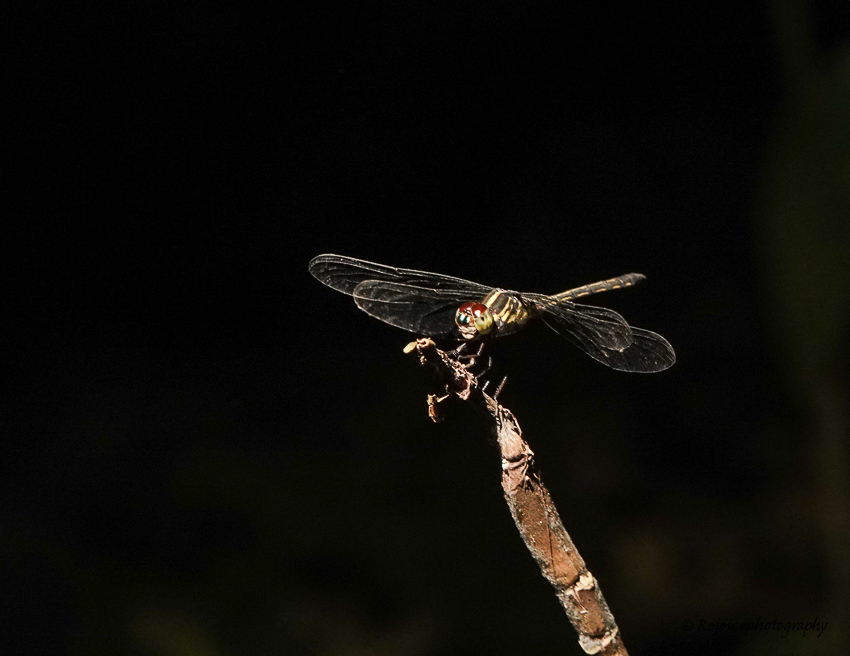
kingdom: Animalia
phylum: Arthropoda
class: Insecta
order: Odonata
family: Libellulidae
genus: Cratilla
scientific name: Cratilla lineata
